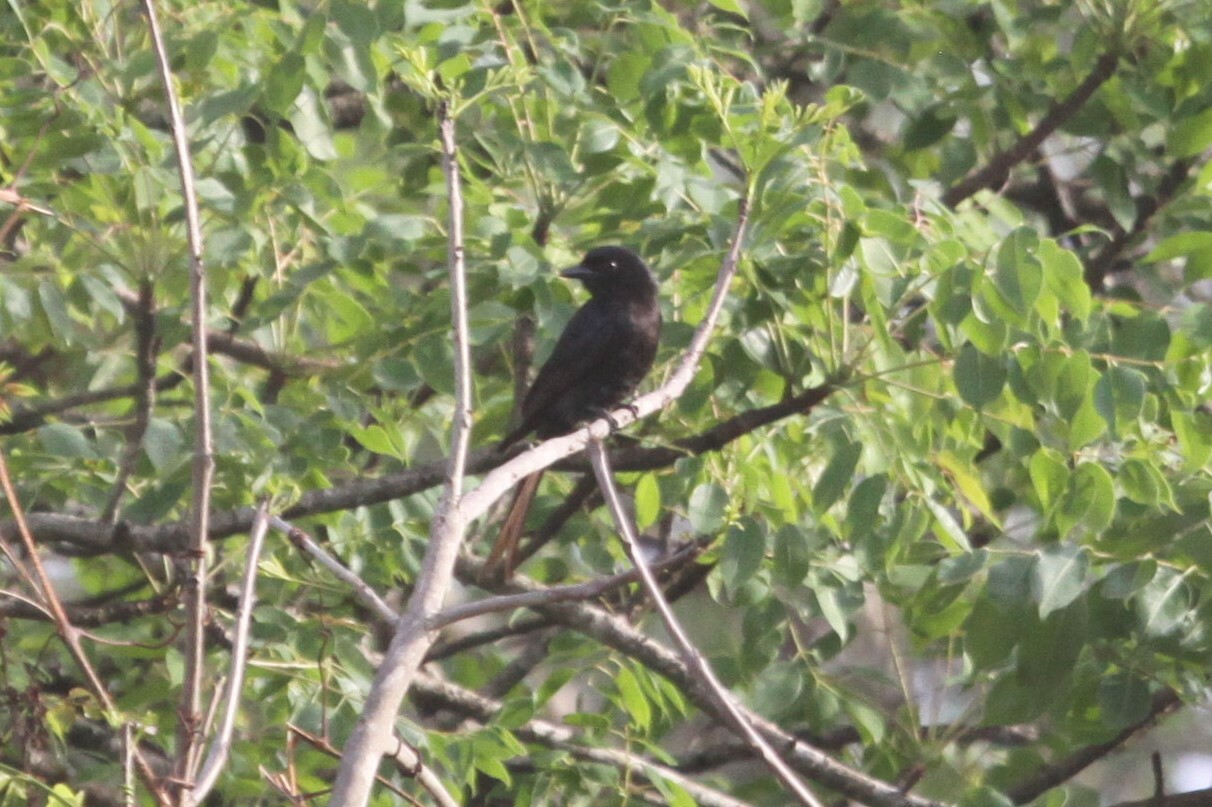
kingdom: Animalia
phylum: Chordata
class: Aves
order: Passeriformes
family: Dicruridae
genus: Dicrurus
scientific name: Dicrurus adsimilis
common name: Fork-tailed drongo
